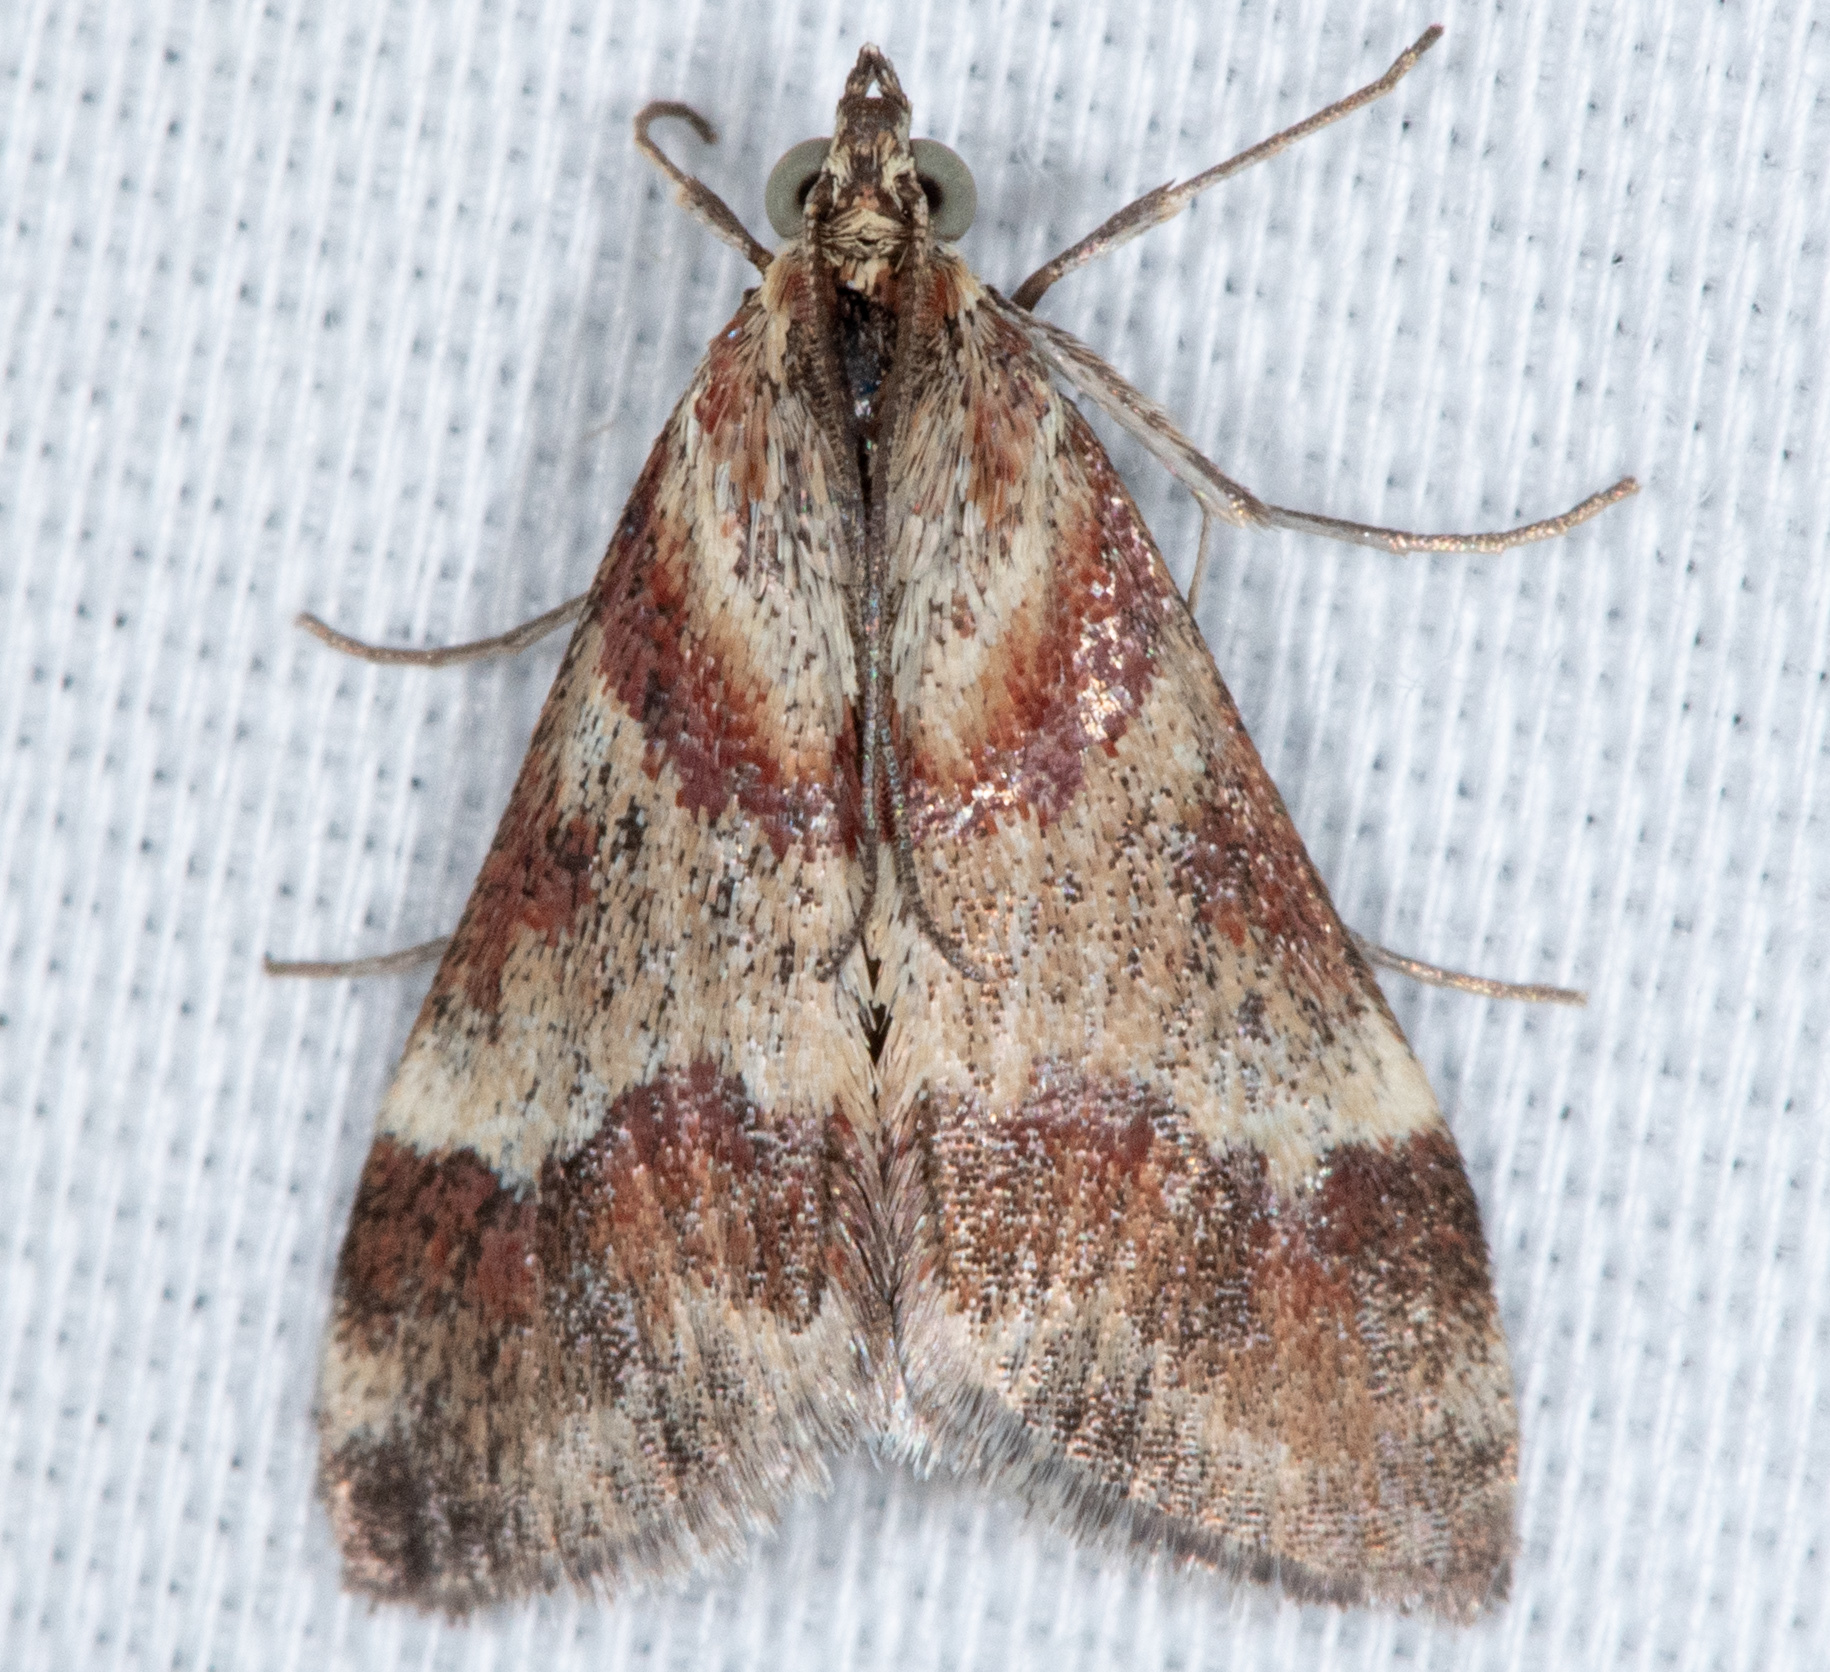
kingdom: Animalia
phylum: Arthropoda
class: Insecta
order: Lepidoptera
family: Crambidae
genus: Noctuelia
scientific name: Noctuelia Mimoschinia rufofascialis
